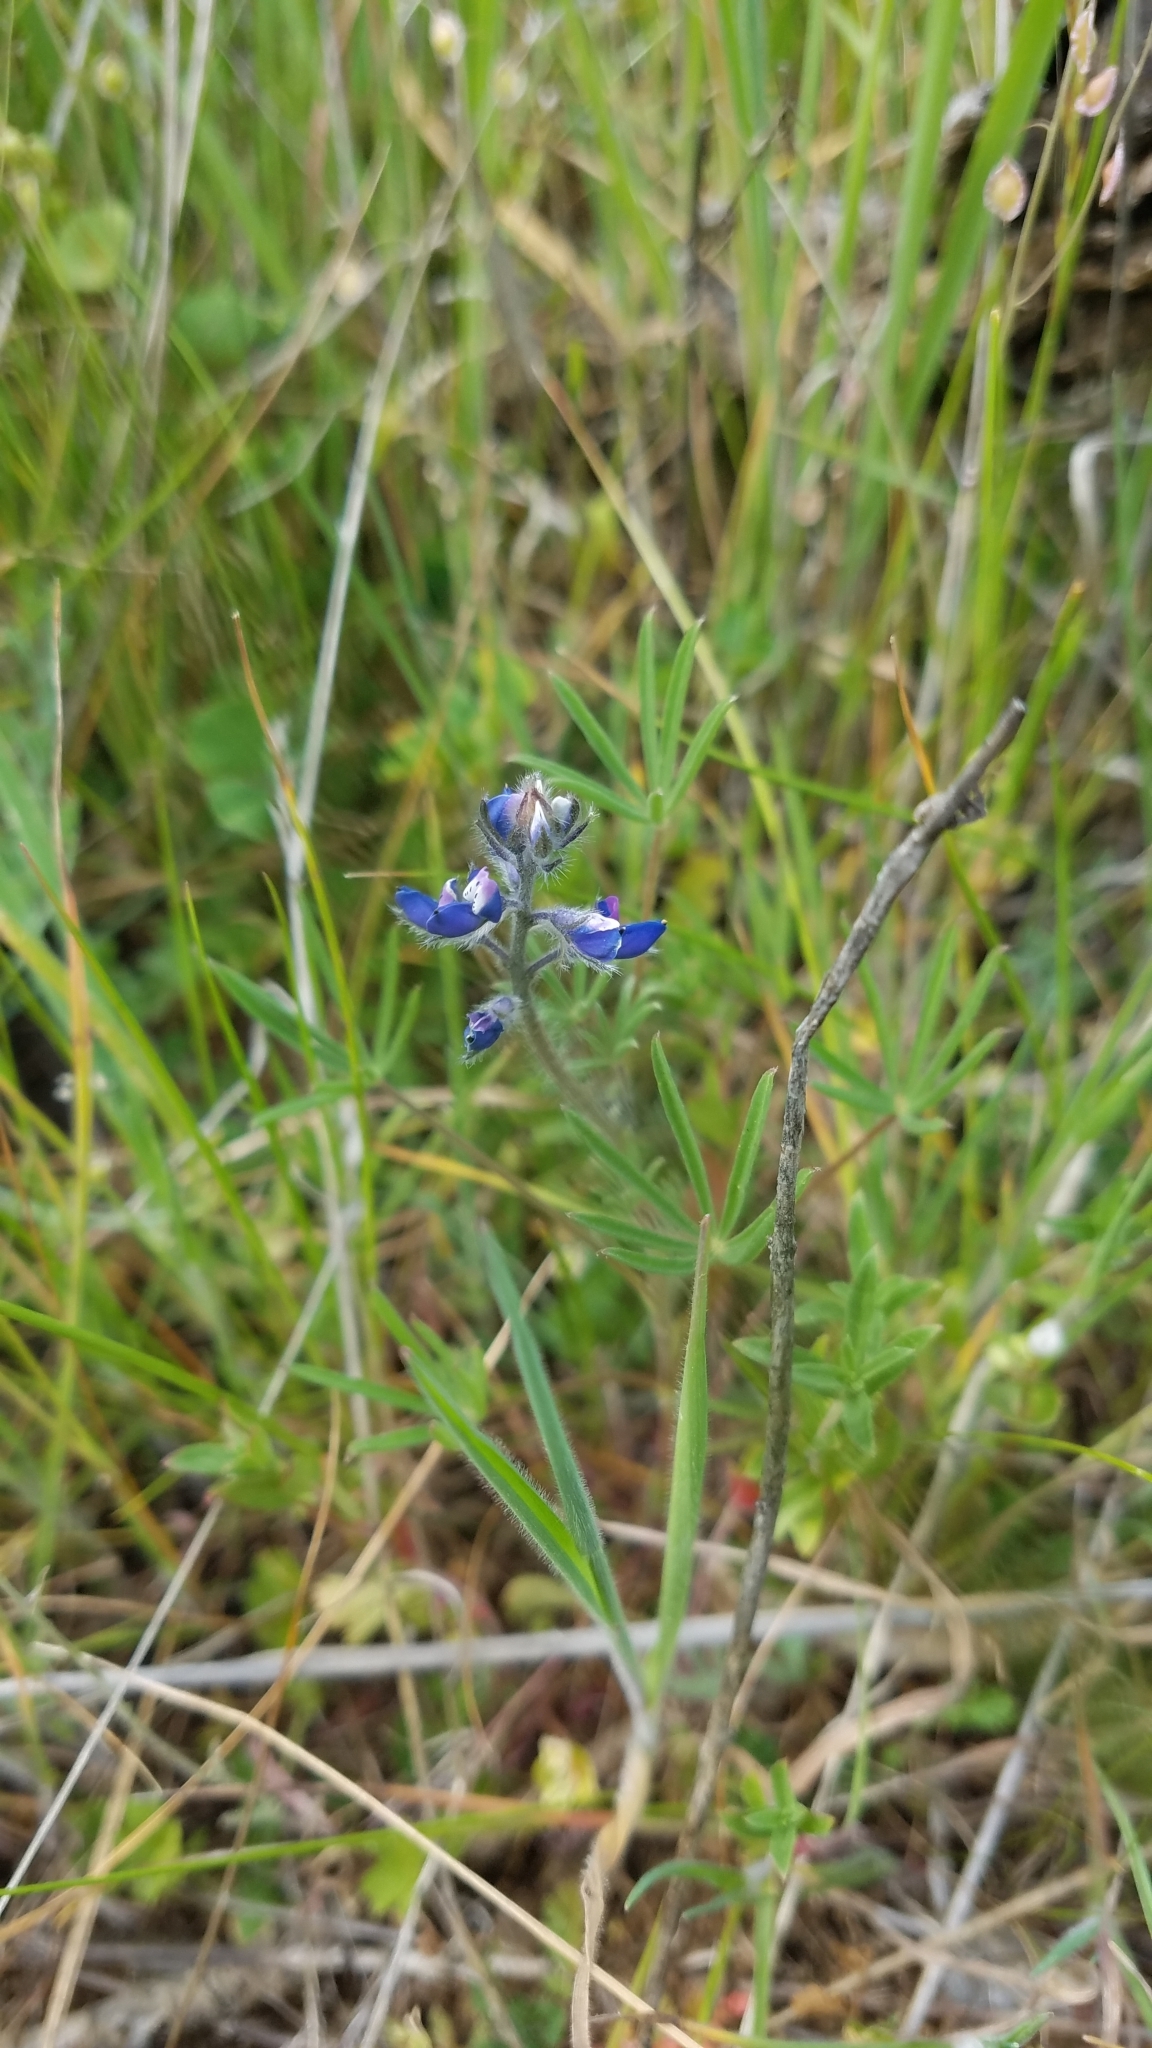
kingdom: Plantae
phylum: Tracheophyta
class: Magnoliopsida
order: Fabales
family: Fabaceae
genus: Lupinus
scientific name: Lupinus bicolor
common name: Miniature lupine
